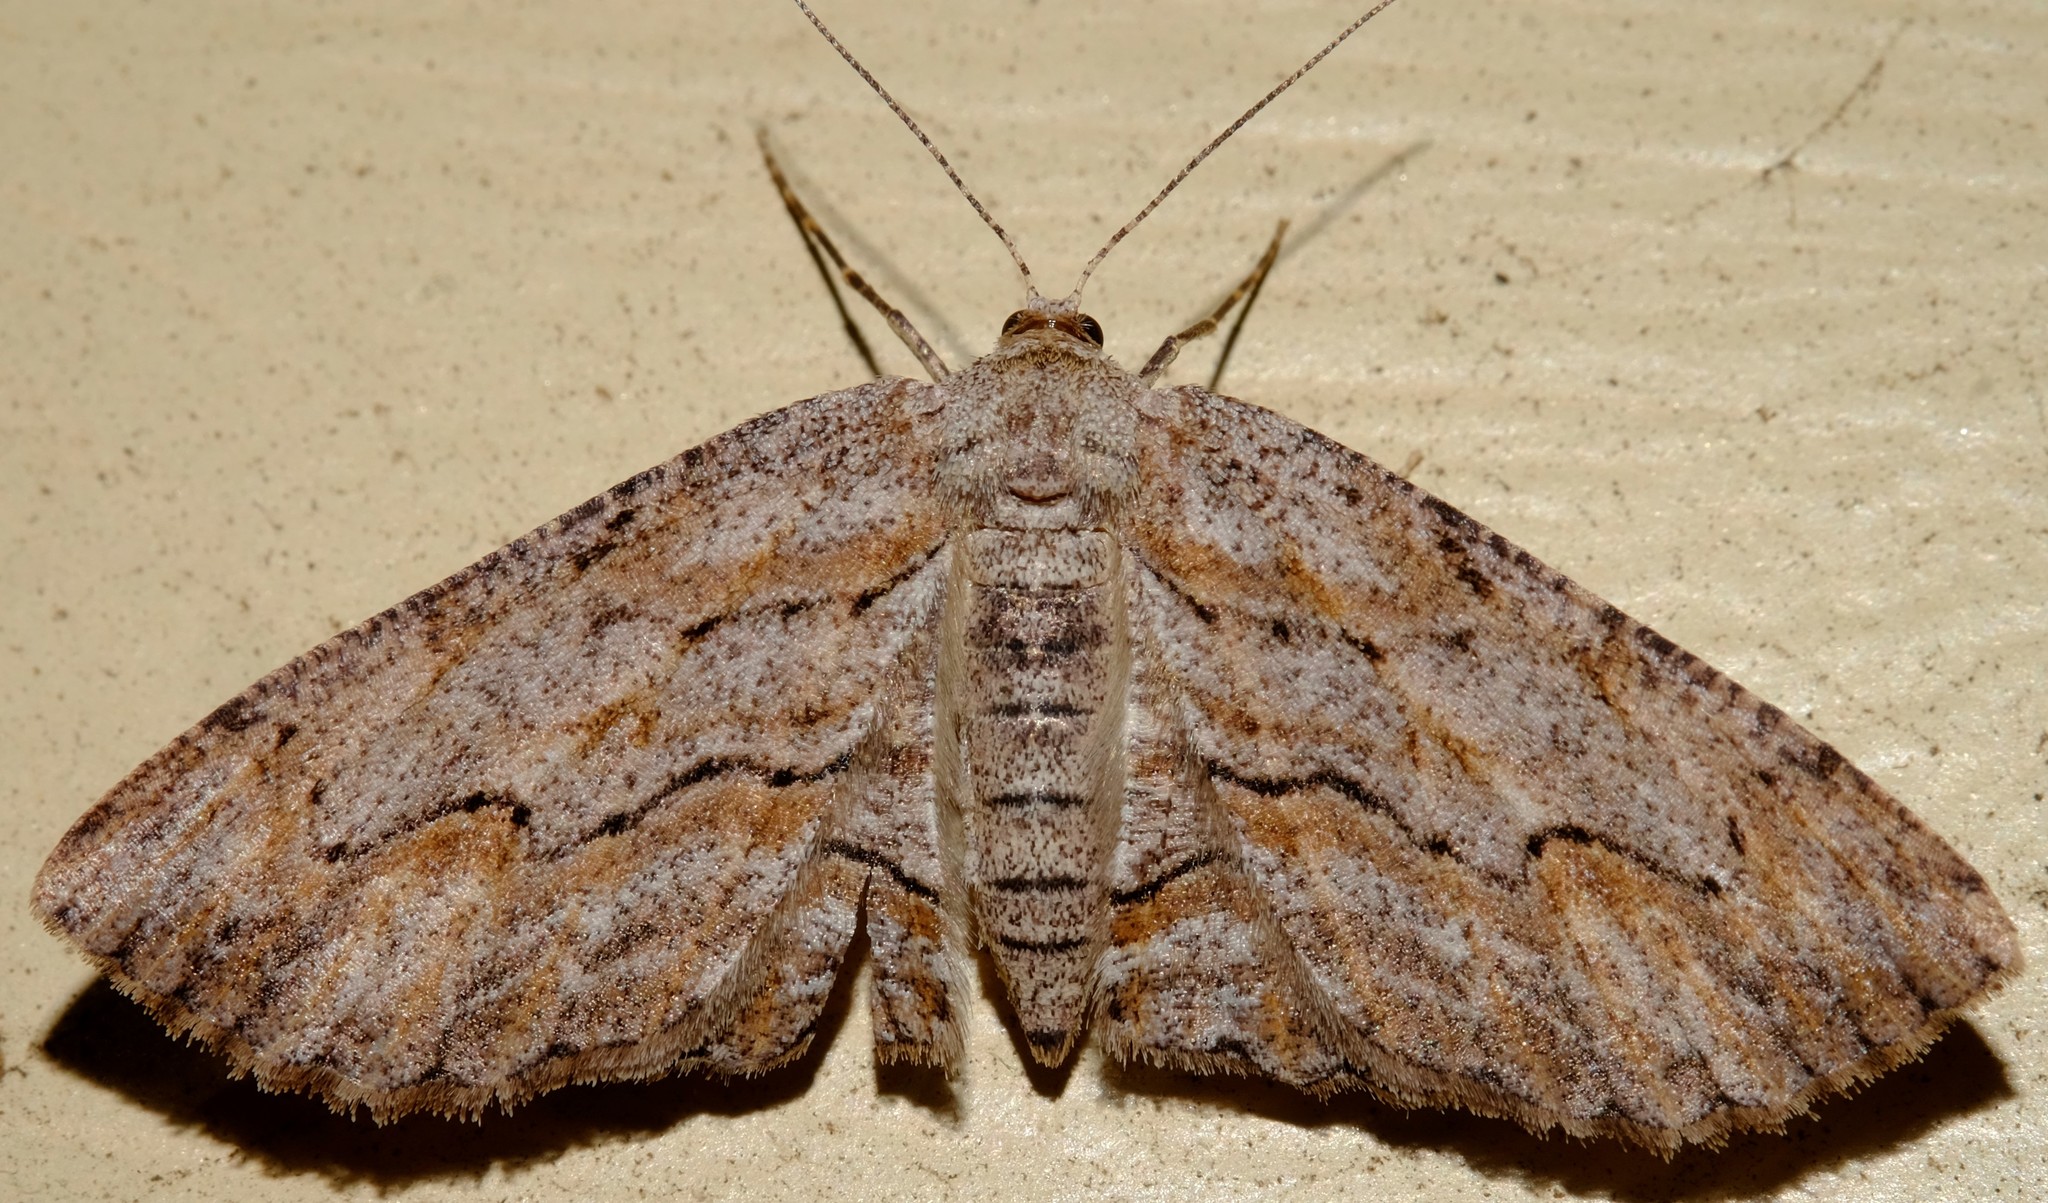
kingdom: Animalia
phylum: Arthropoda
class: Insecta
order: Lepidoptera
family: Geometridae
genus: Ectropis
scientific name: Ectropis excursaria
